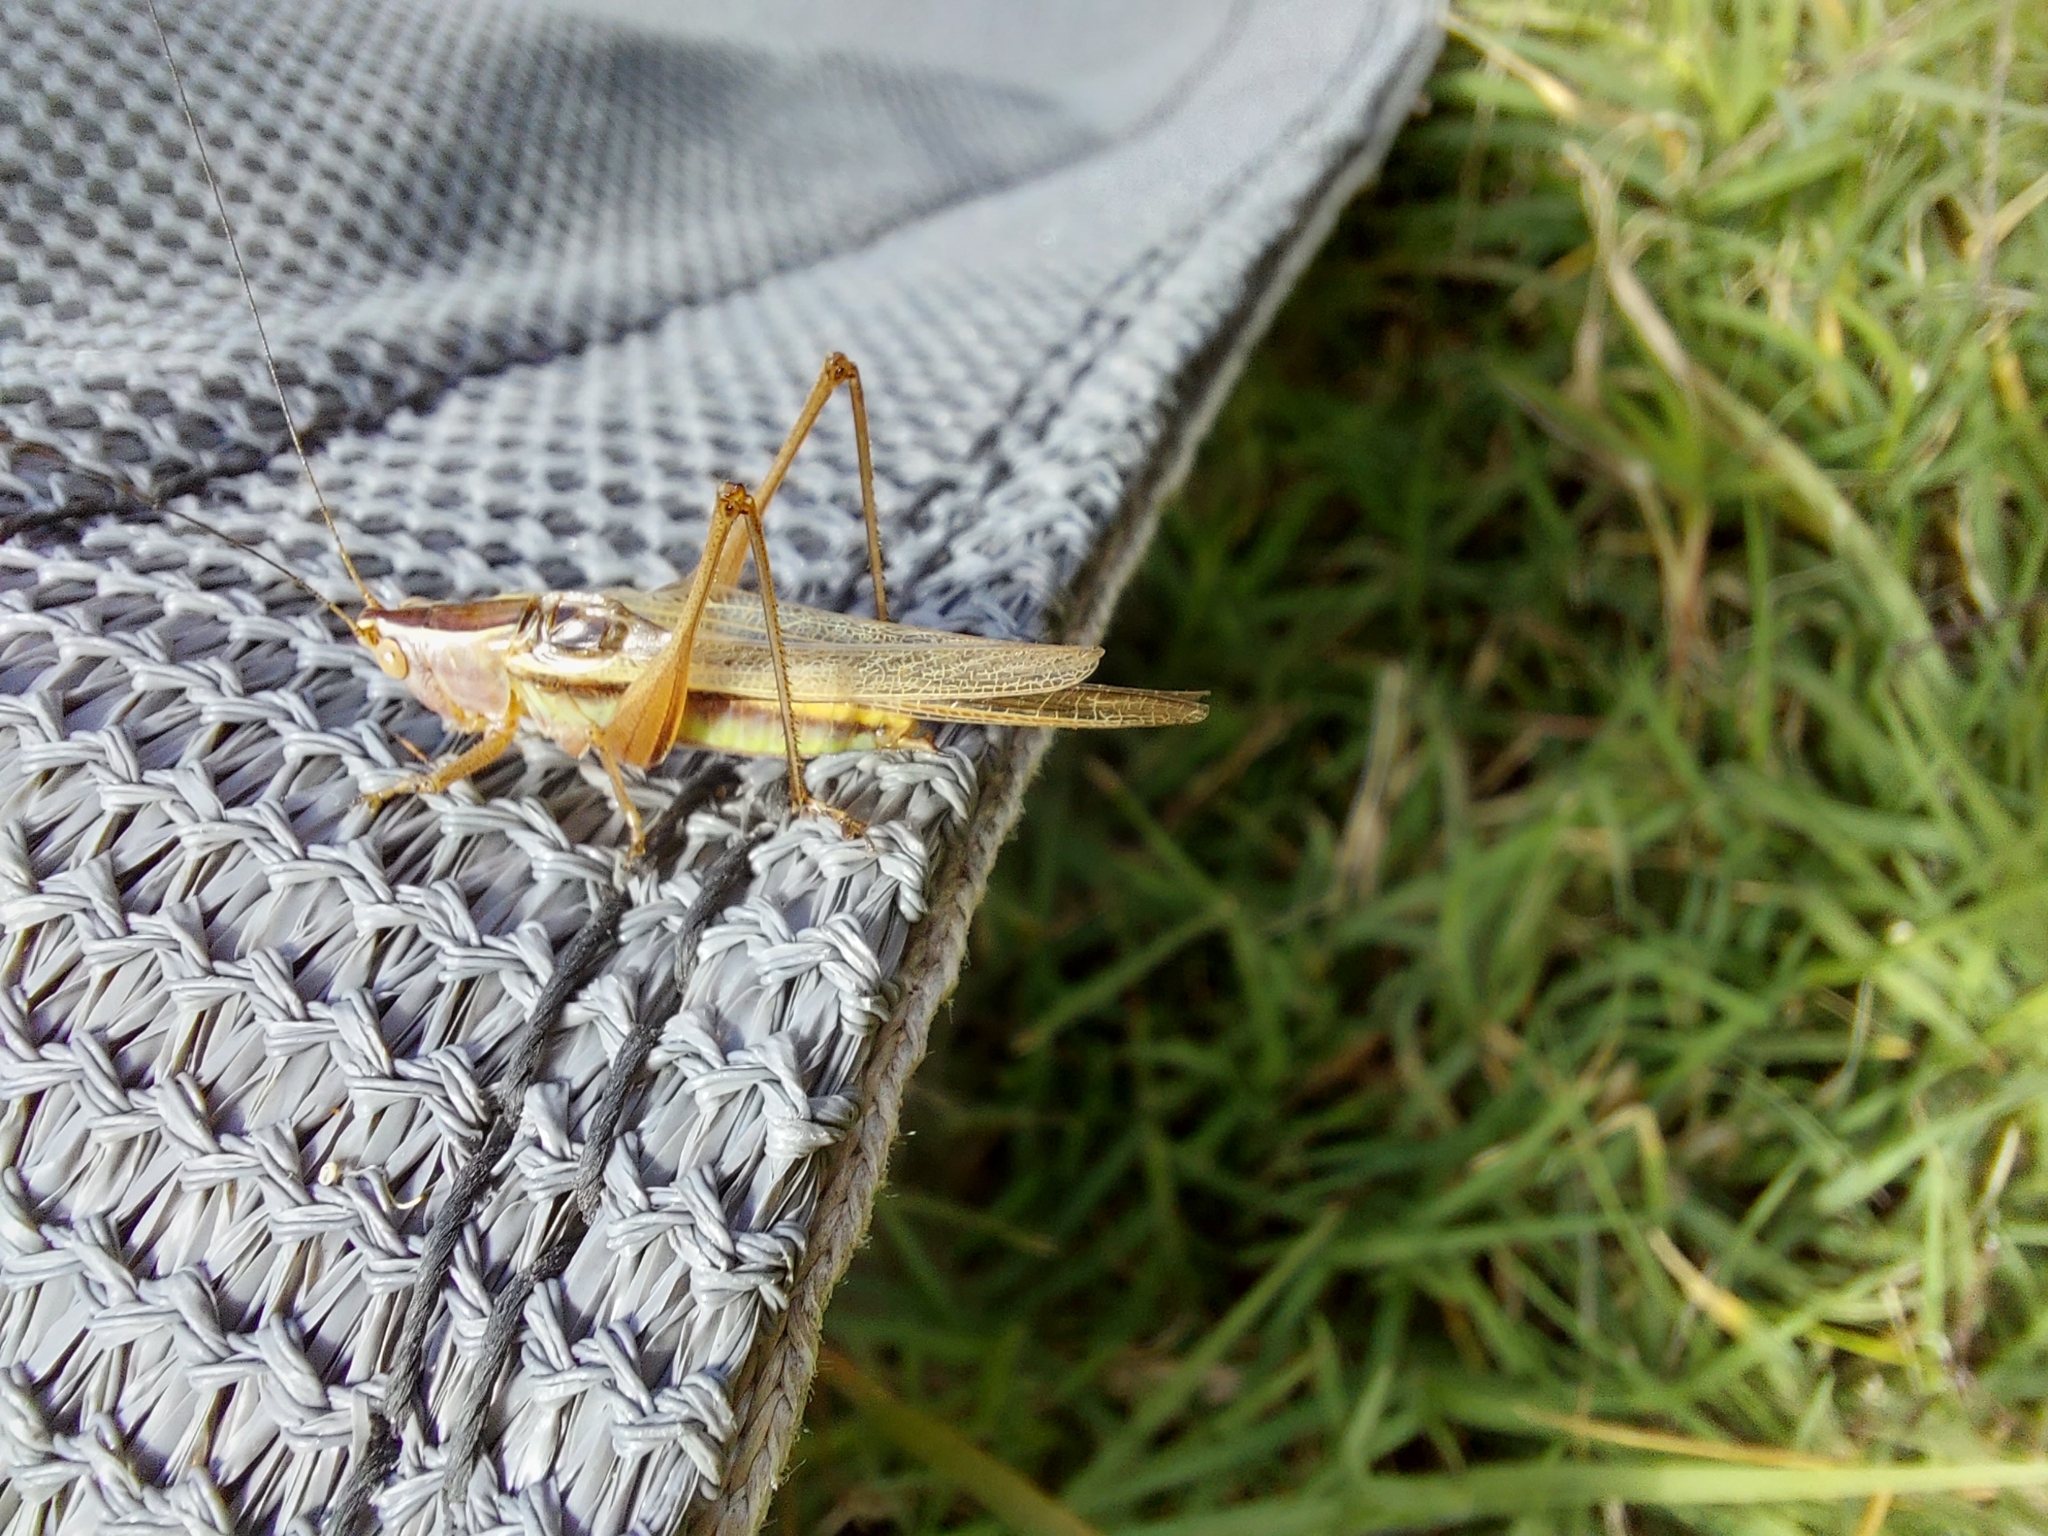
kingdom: Animalia
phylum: Arthropoda
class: Insecta
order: Orthoptera
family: Tettigoniidae
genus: Conocephalus
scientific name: Conocephalus albescens
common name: Whitish meadow katydid
